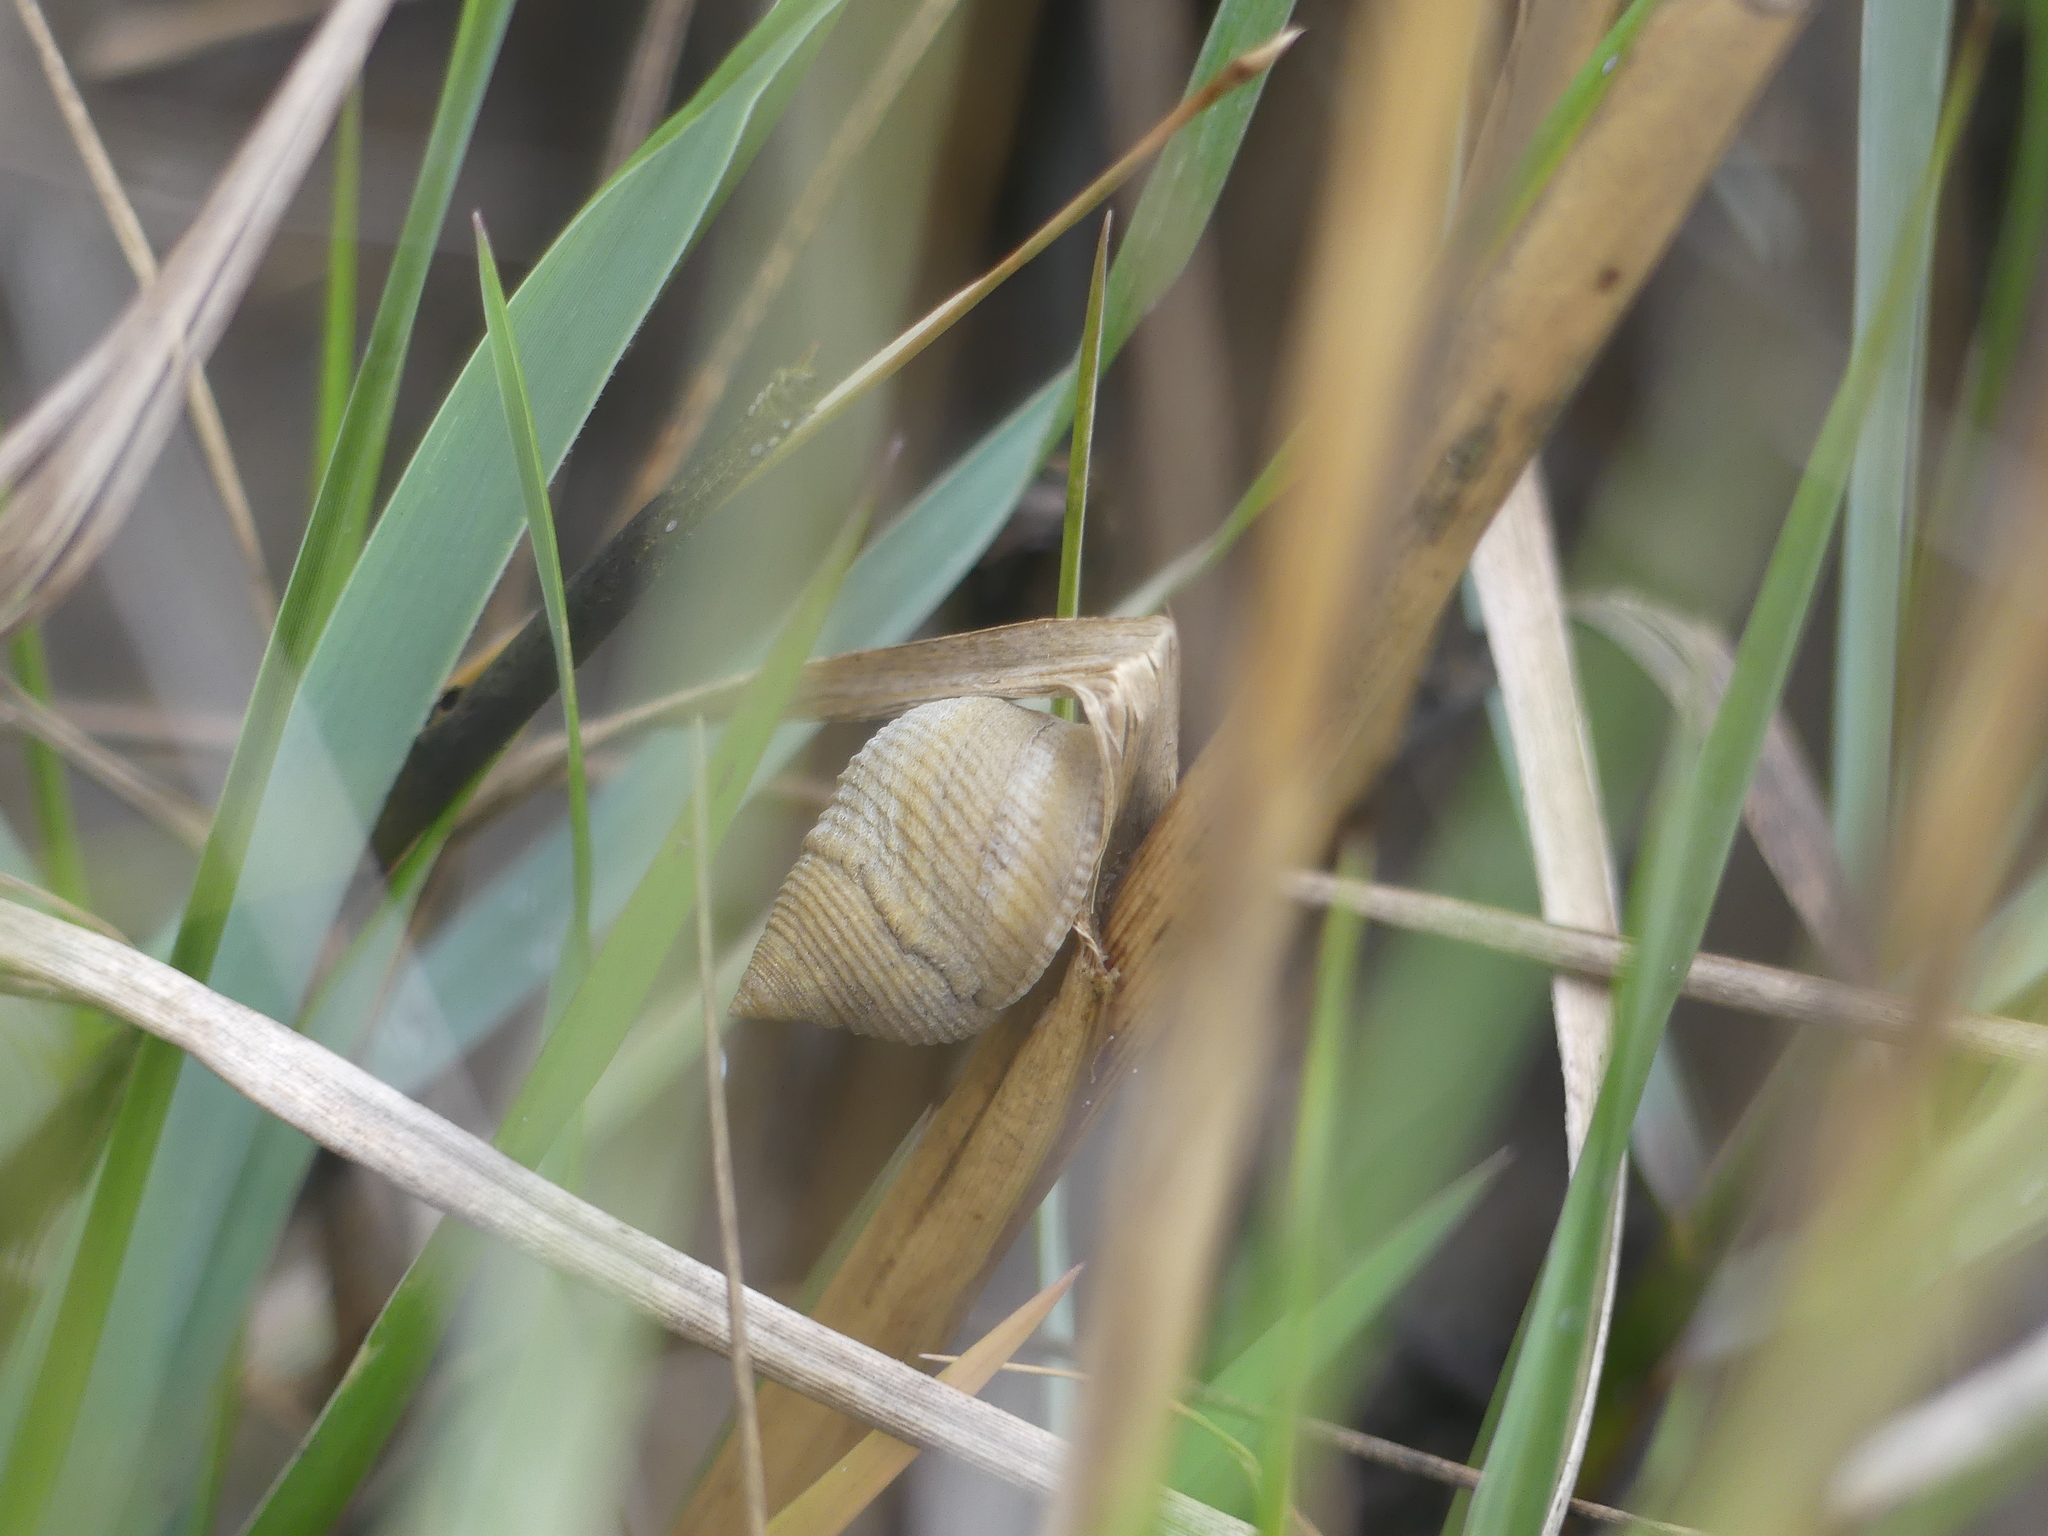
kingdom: Animalia
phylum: Mollusca
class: Gastropoda
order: Littorinimorpha
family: Littorinidae
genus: Littoraria
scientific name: Littoraria irrorata
